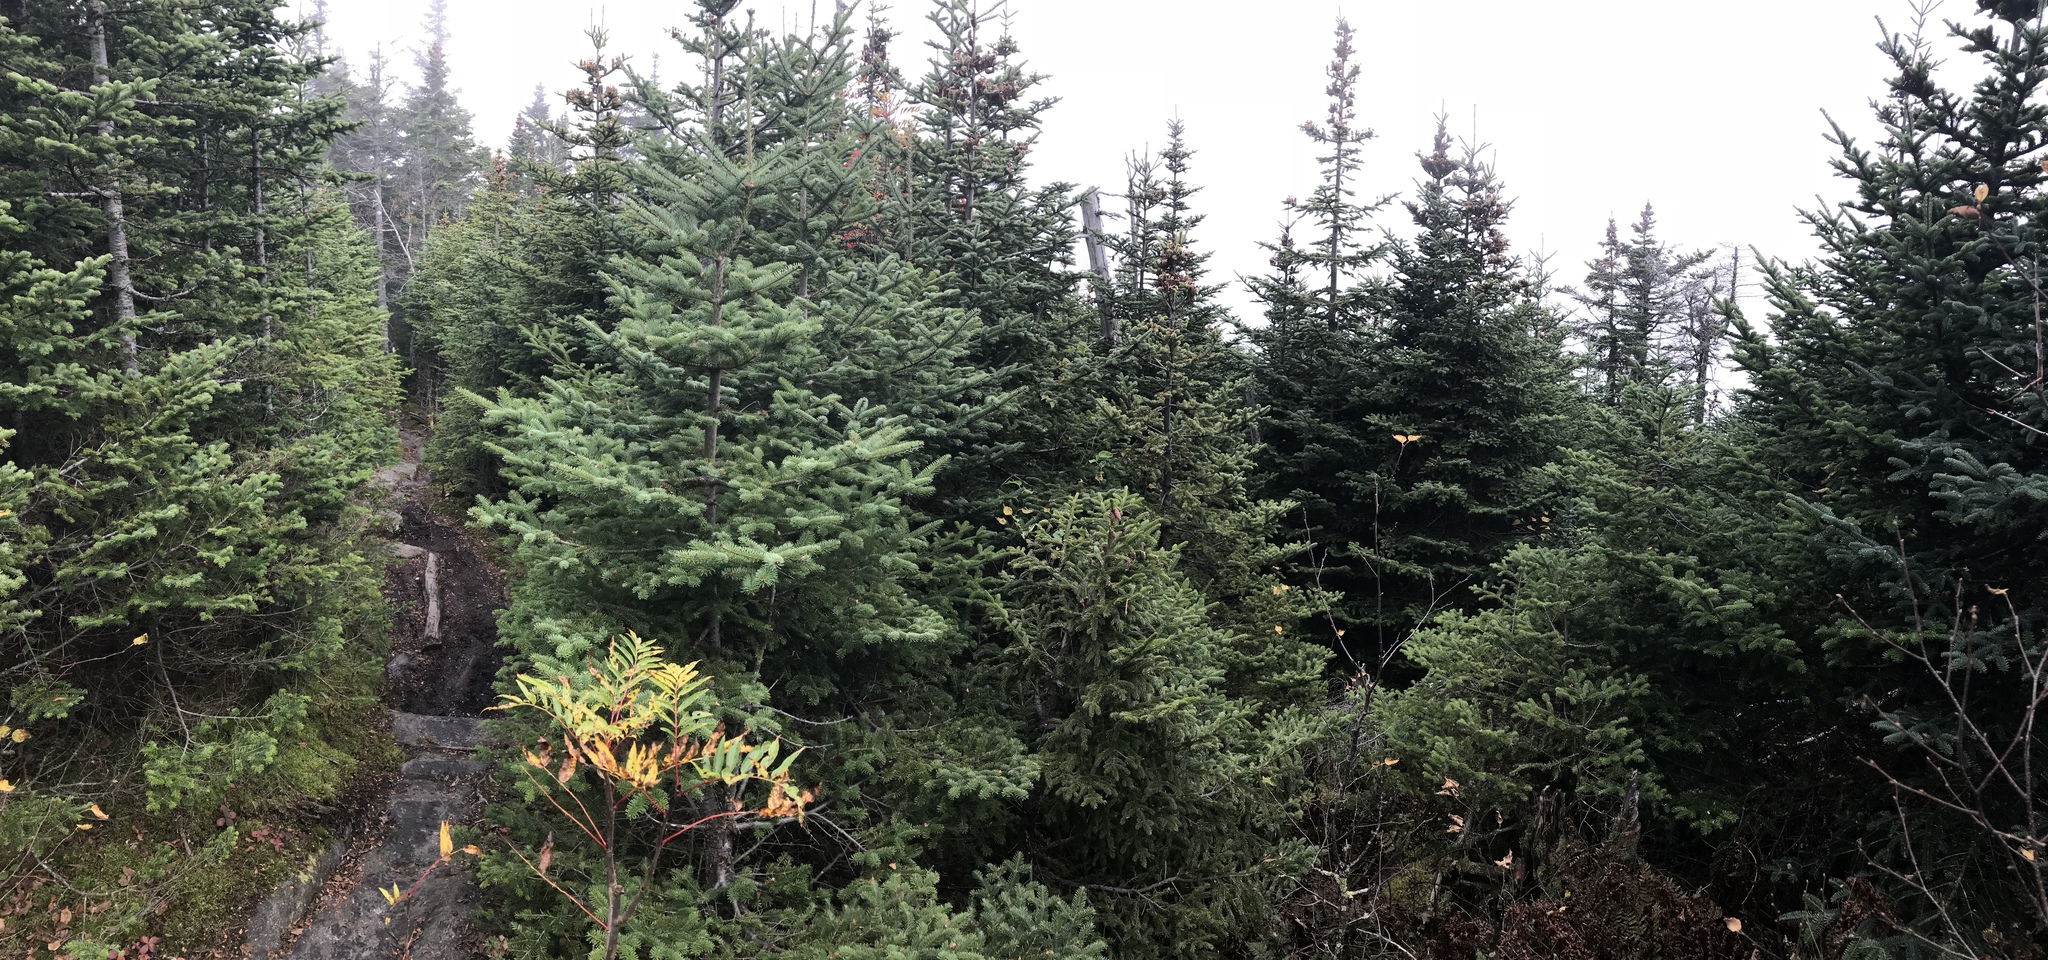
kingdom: Plantae
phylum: Tracheophyta
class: Pinopsida
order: Pinales
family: Pinaceae
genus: Abies
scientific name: Abies balsamea
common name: Balsam fir
